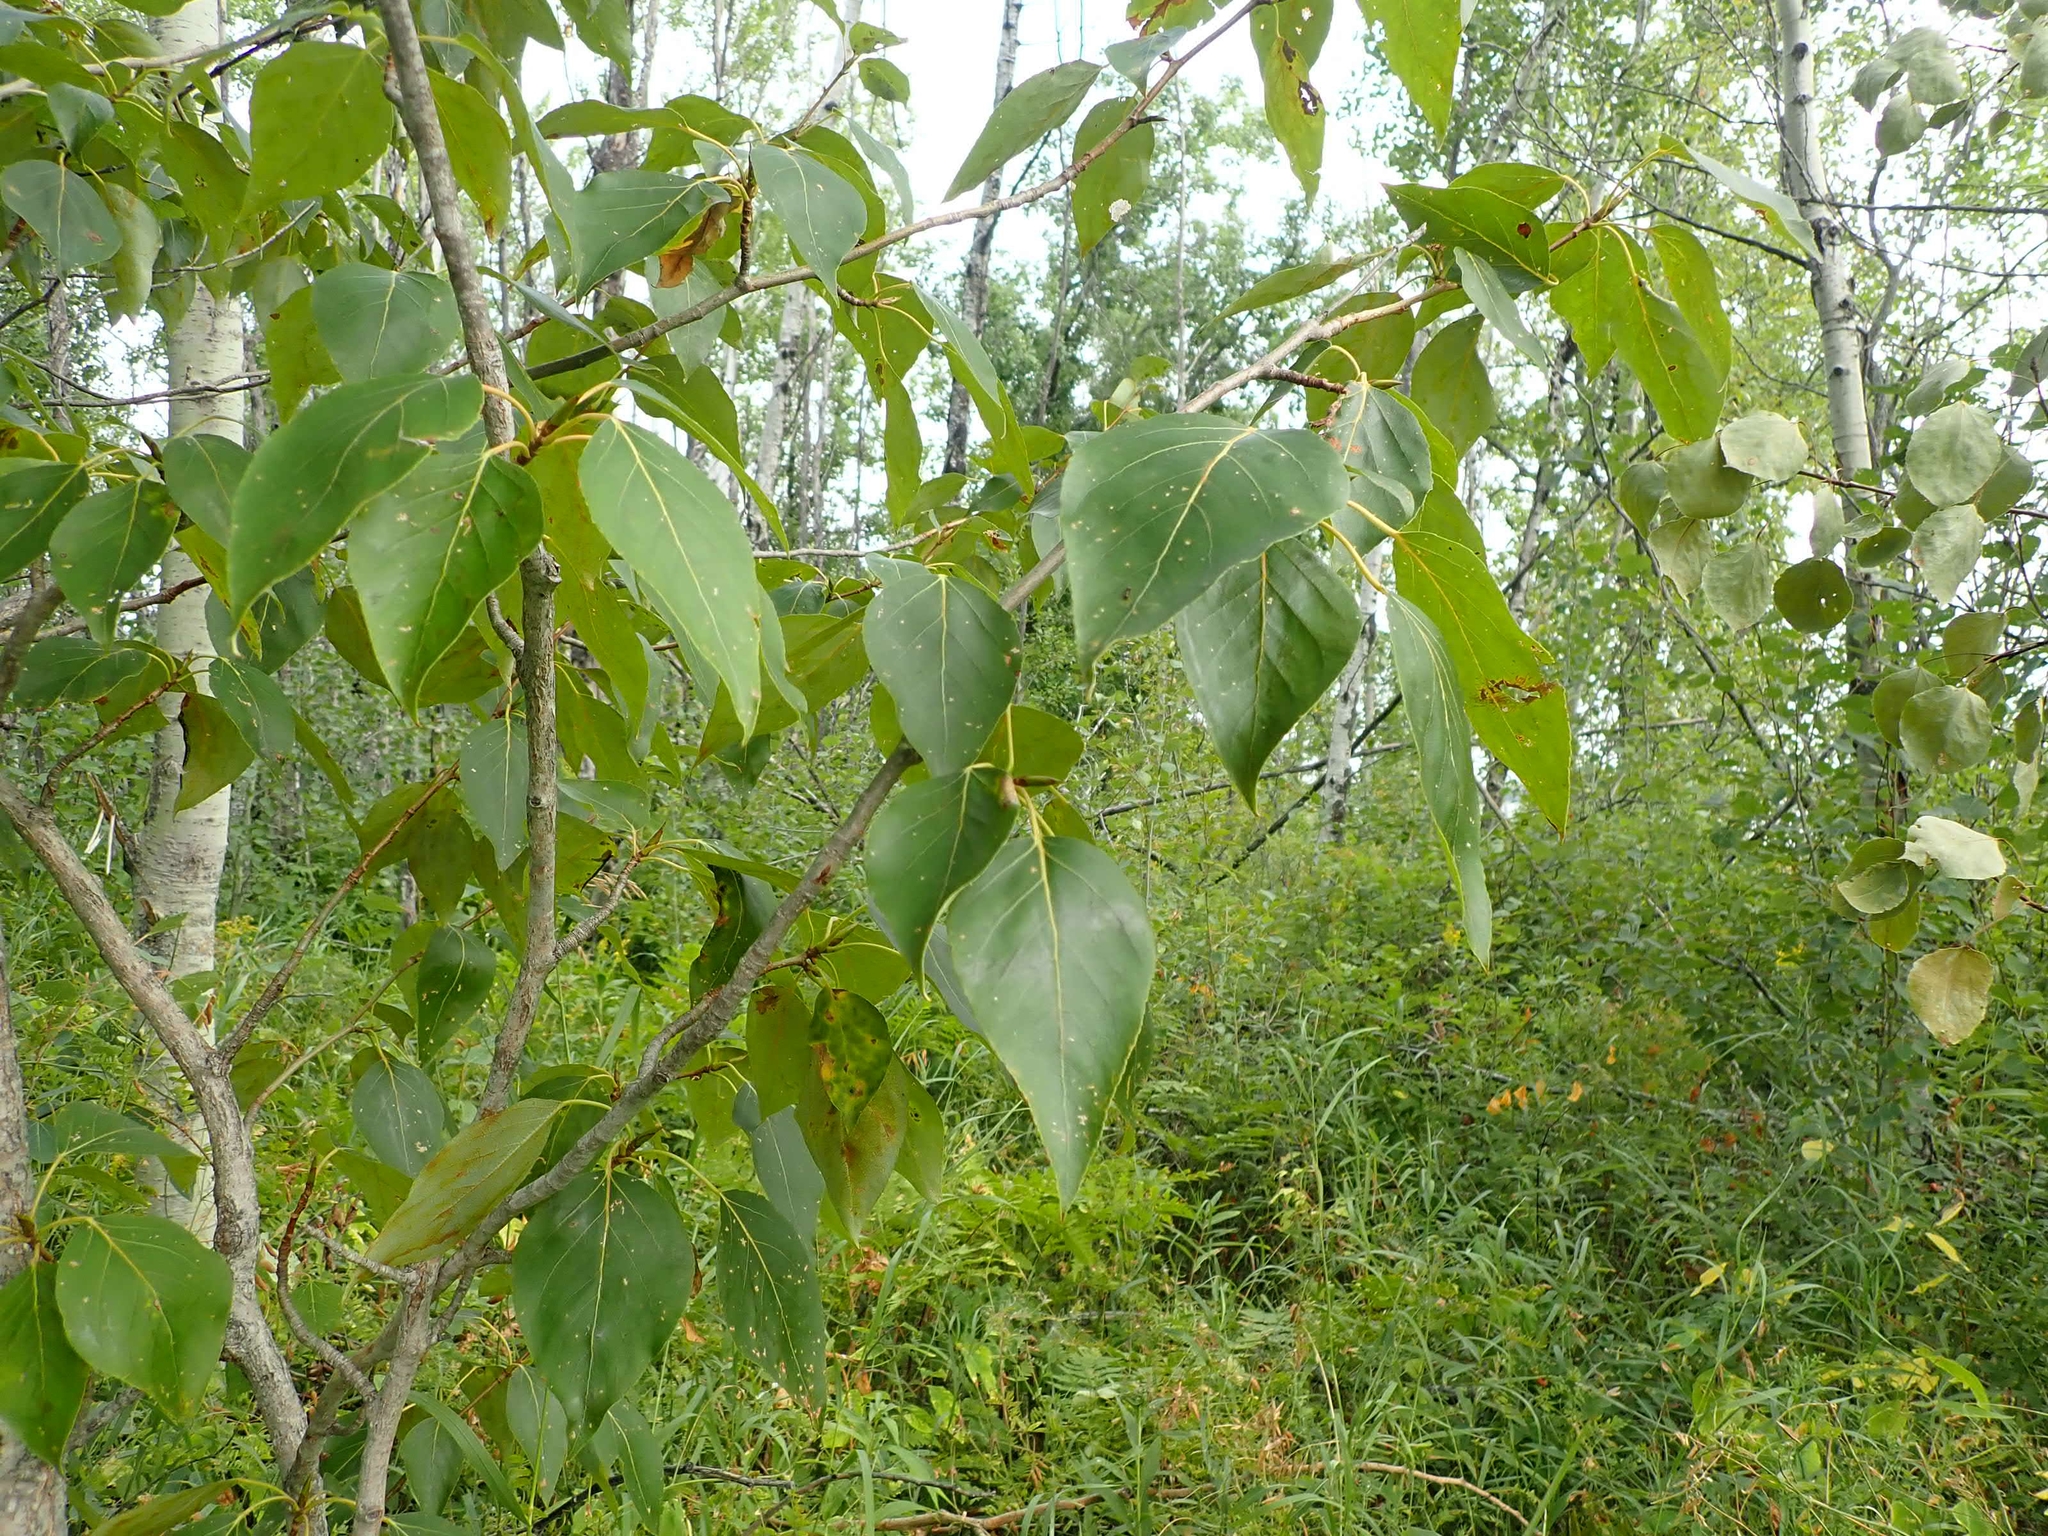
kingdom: Plantae
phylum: Tracheophyta
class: Magnoliopsida
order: Malpighiales
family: Salicaceae
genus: Populus
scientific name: Populus balsamifera
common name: Balsam poplar
